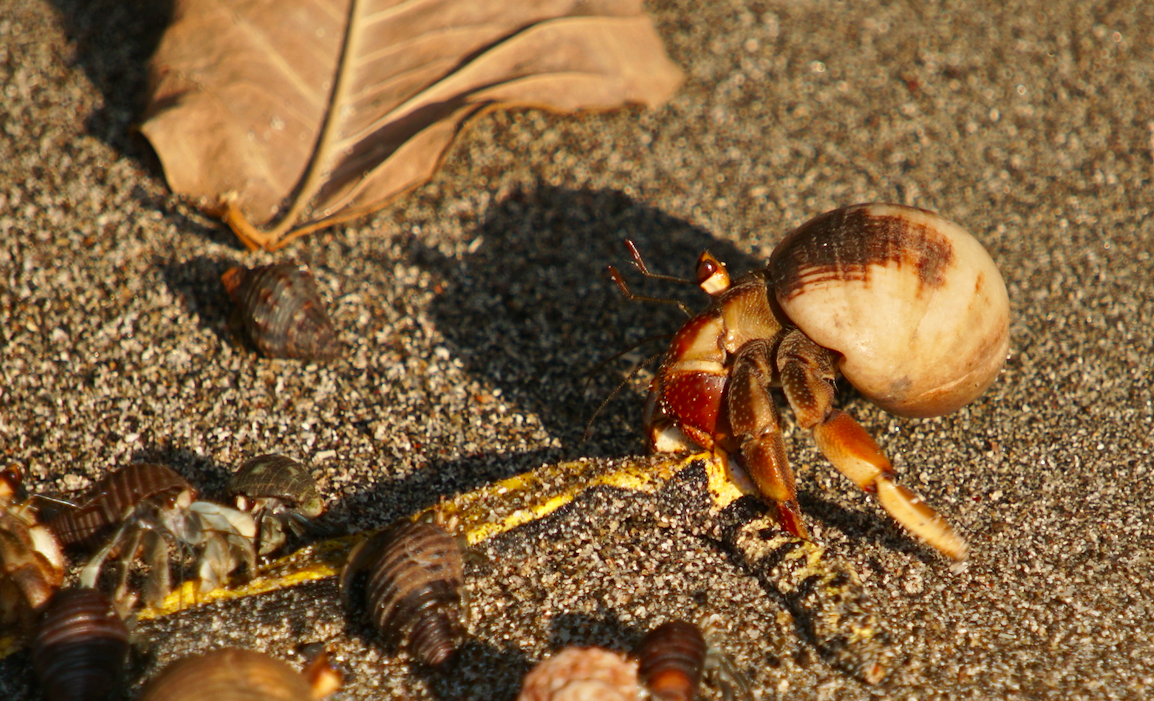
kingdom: Animalia
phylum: Arthropoda
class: Malacostraca
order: Decapoda
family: Coenobitidae
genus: Coenobita
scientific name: Coenobita compressus
